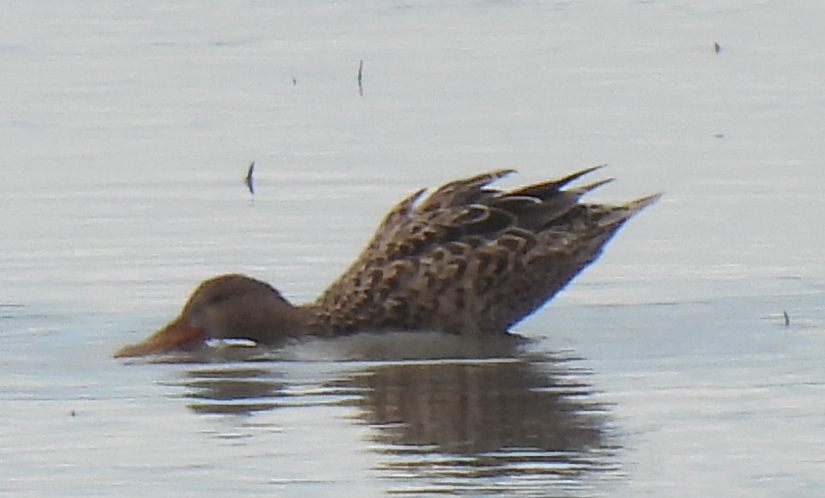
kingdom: Animalia
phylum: Chordata
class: Aves
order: Anseriformes
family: Anatidae
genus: Spatula
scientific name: Spatula clypeata
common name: Northern shoveler
